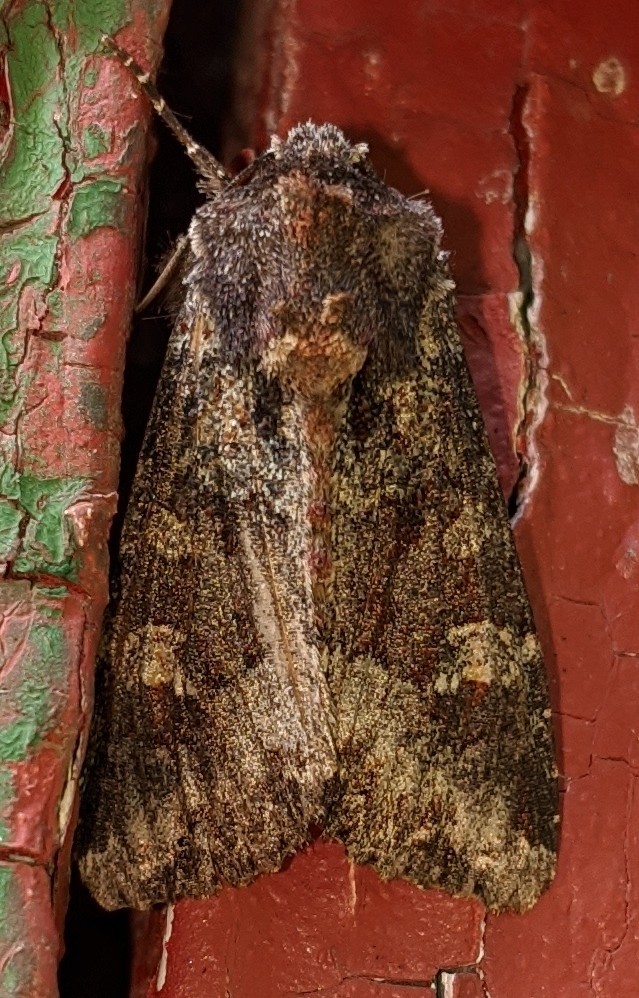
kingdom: Animalia
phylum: Arthropoda
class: Insecta
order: Lepidoptera
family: Noctuidae
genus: Apamea
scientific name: Apamea amputatrix
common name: Yellow-headed cutworm moth
